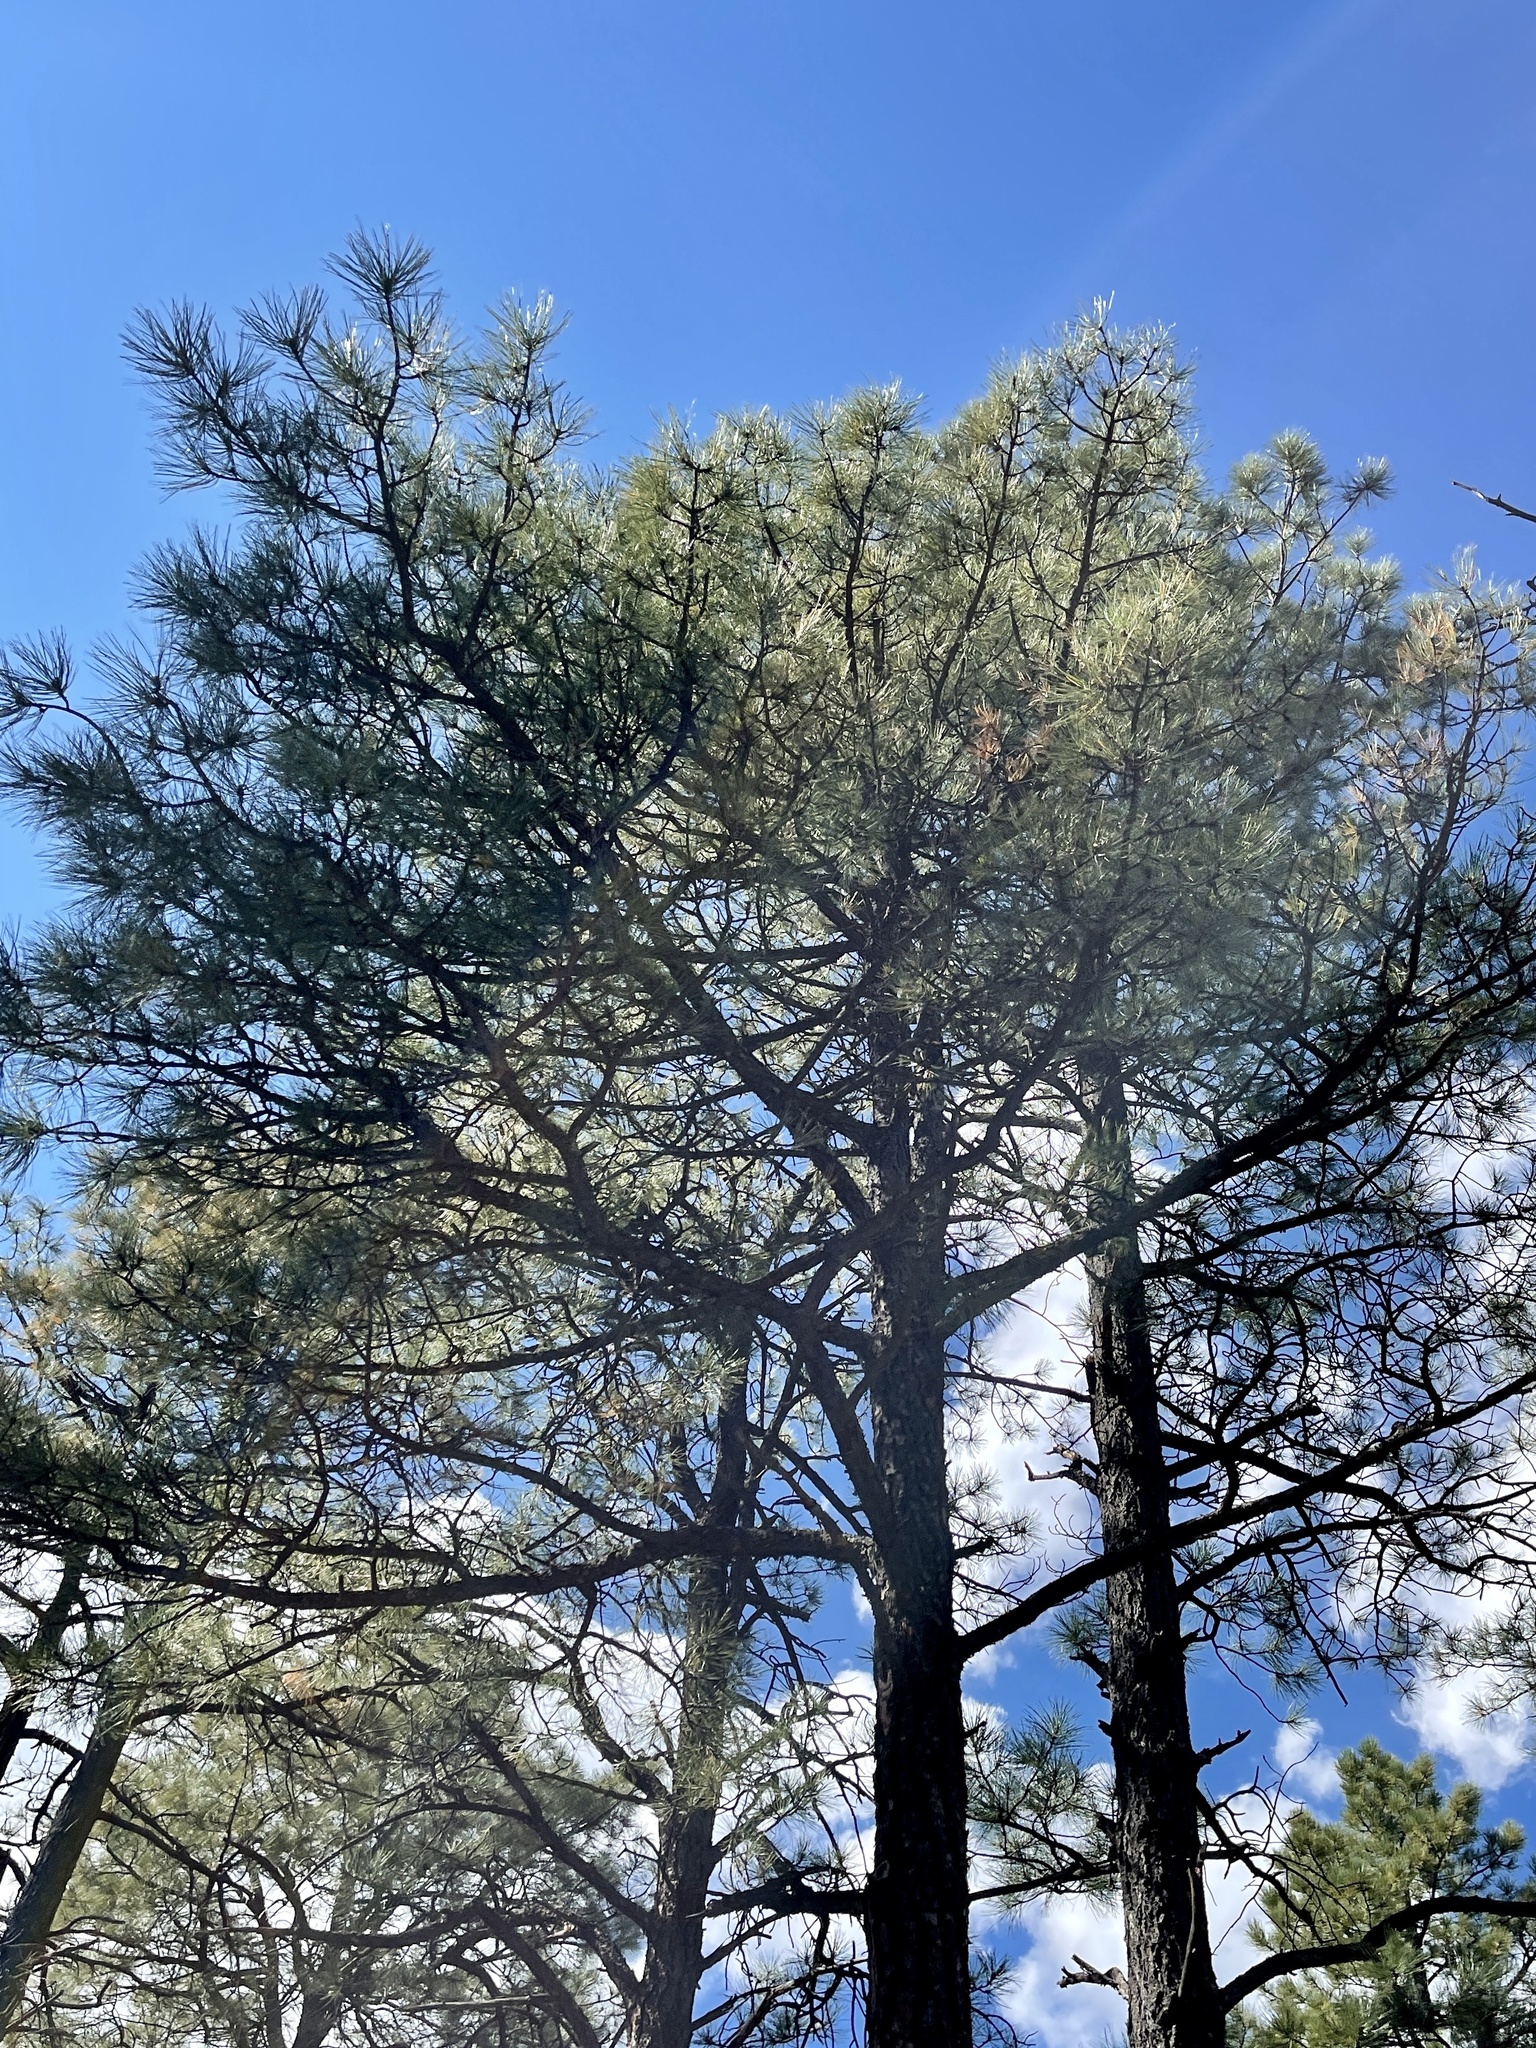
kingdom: Plantae
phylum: Tracheophyta
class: Pinopsida
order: Pinales
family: Pinaceae
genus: Pinus
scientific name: Pinus ponderosa
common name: Western yellow-pine
